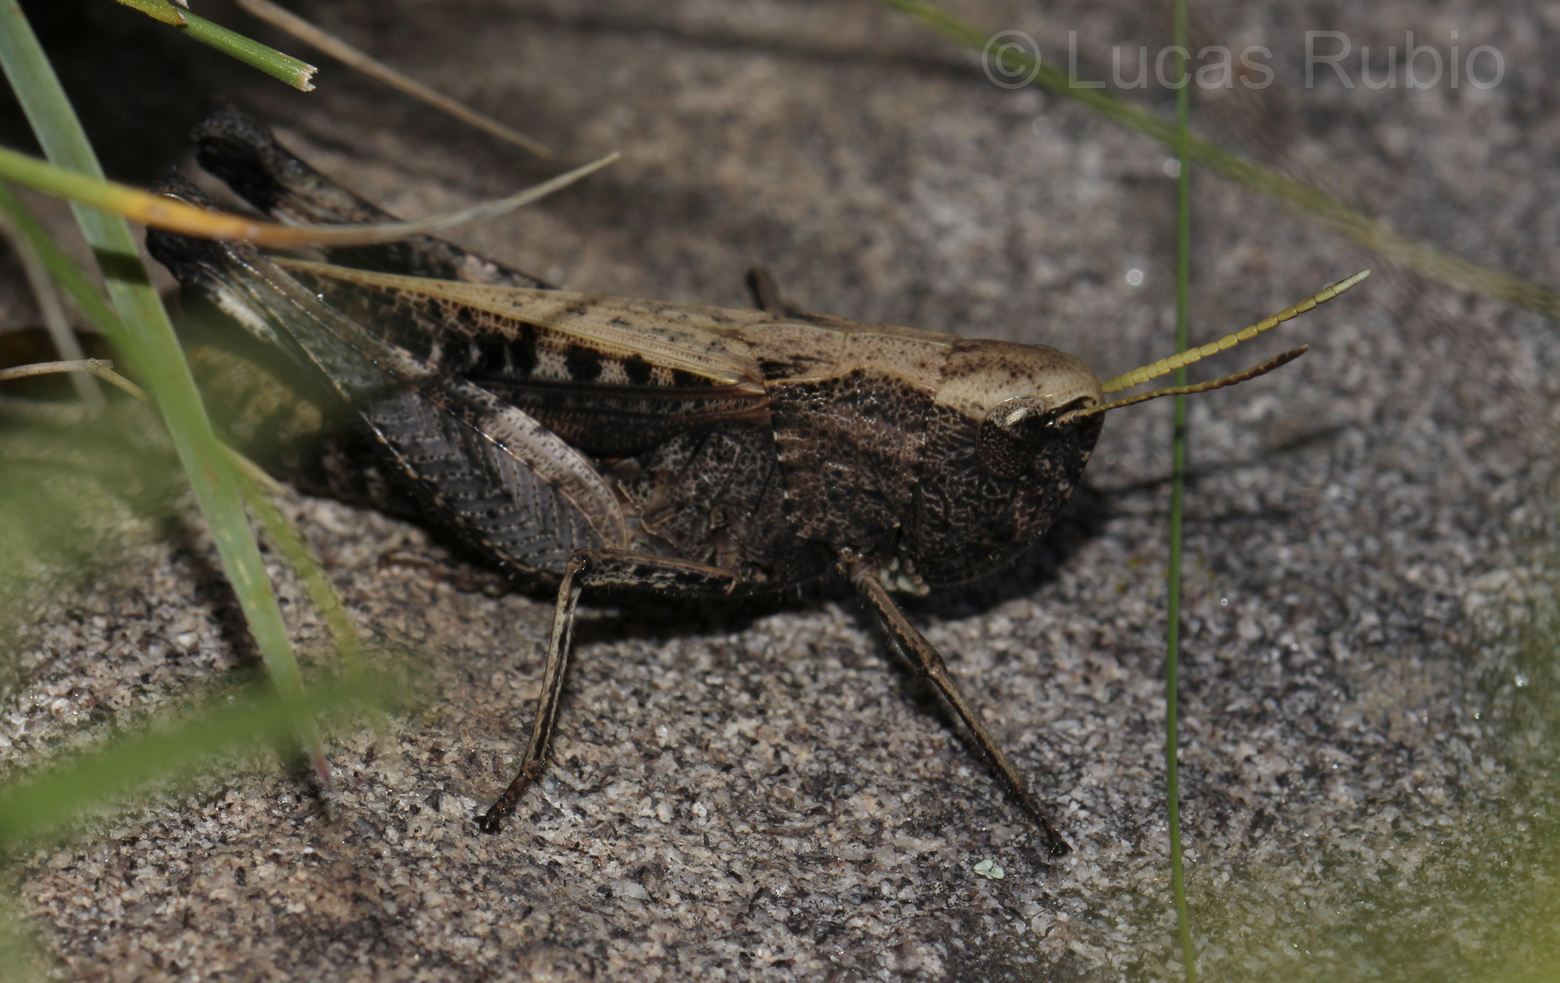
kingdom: Animalia
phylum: Arthropoda
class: Insecta
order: Orthoptera
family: Acrididae
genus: Fenestra
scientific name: Fenestra bohlsii
